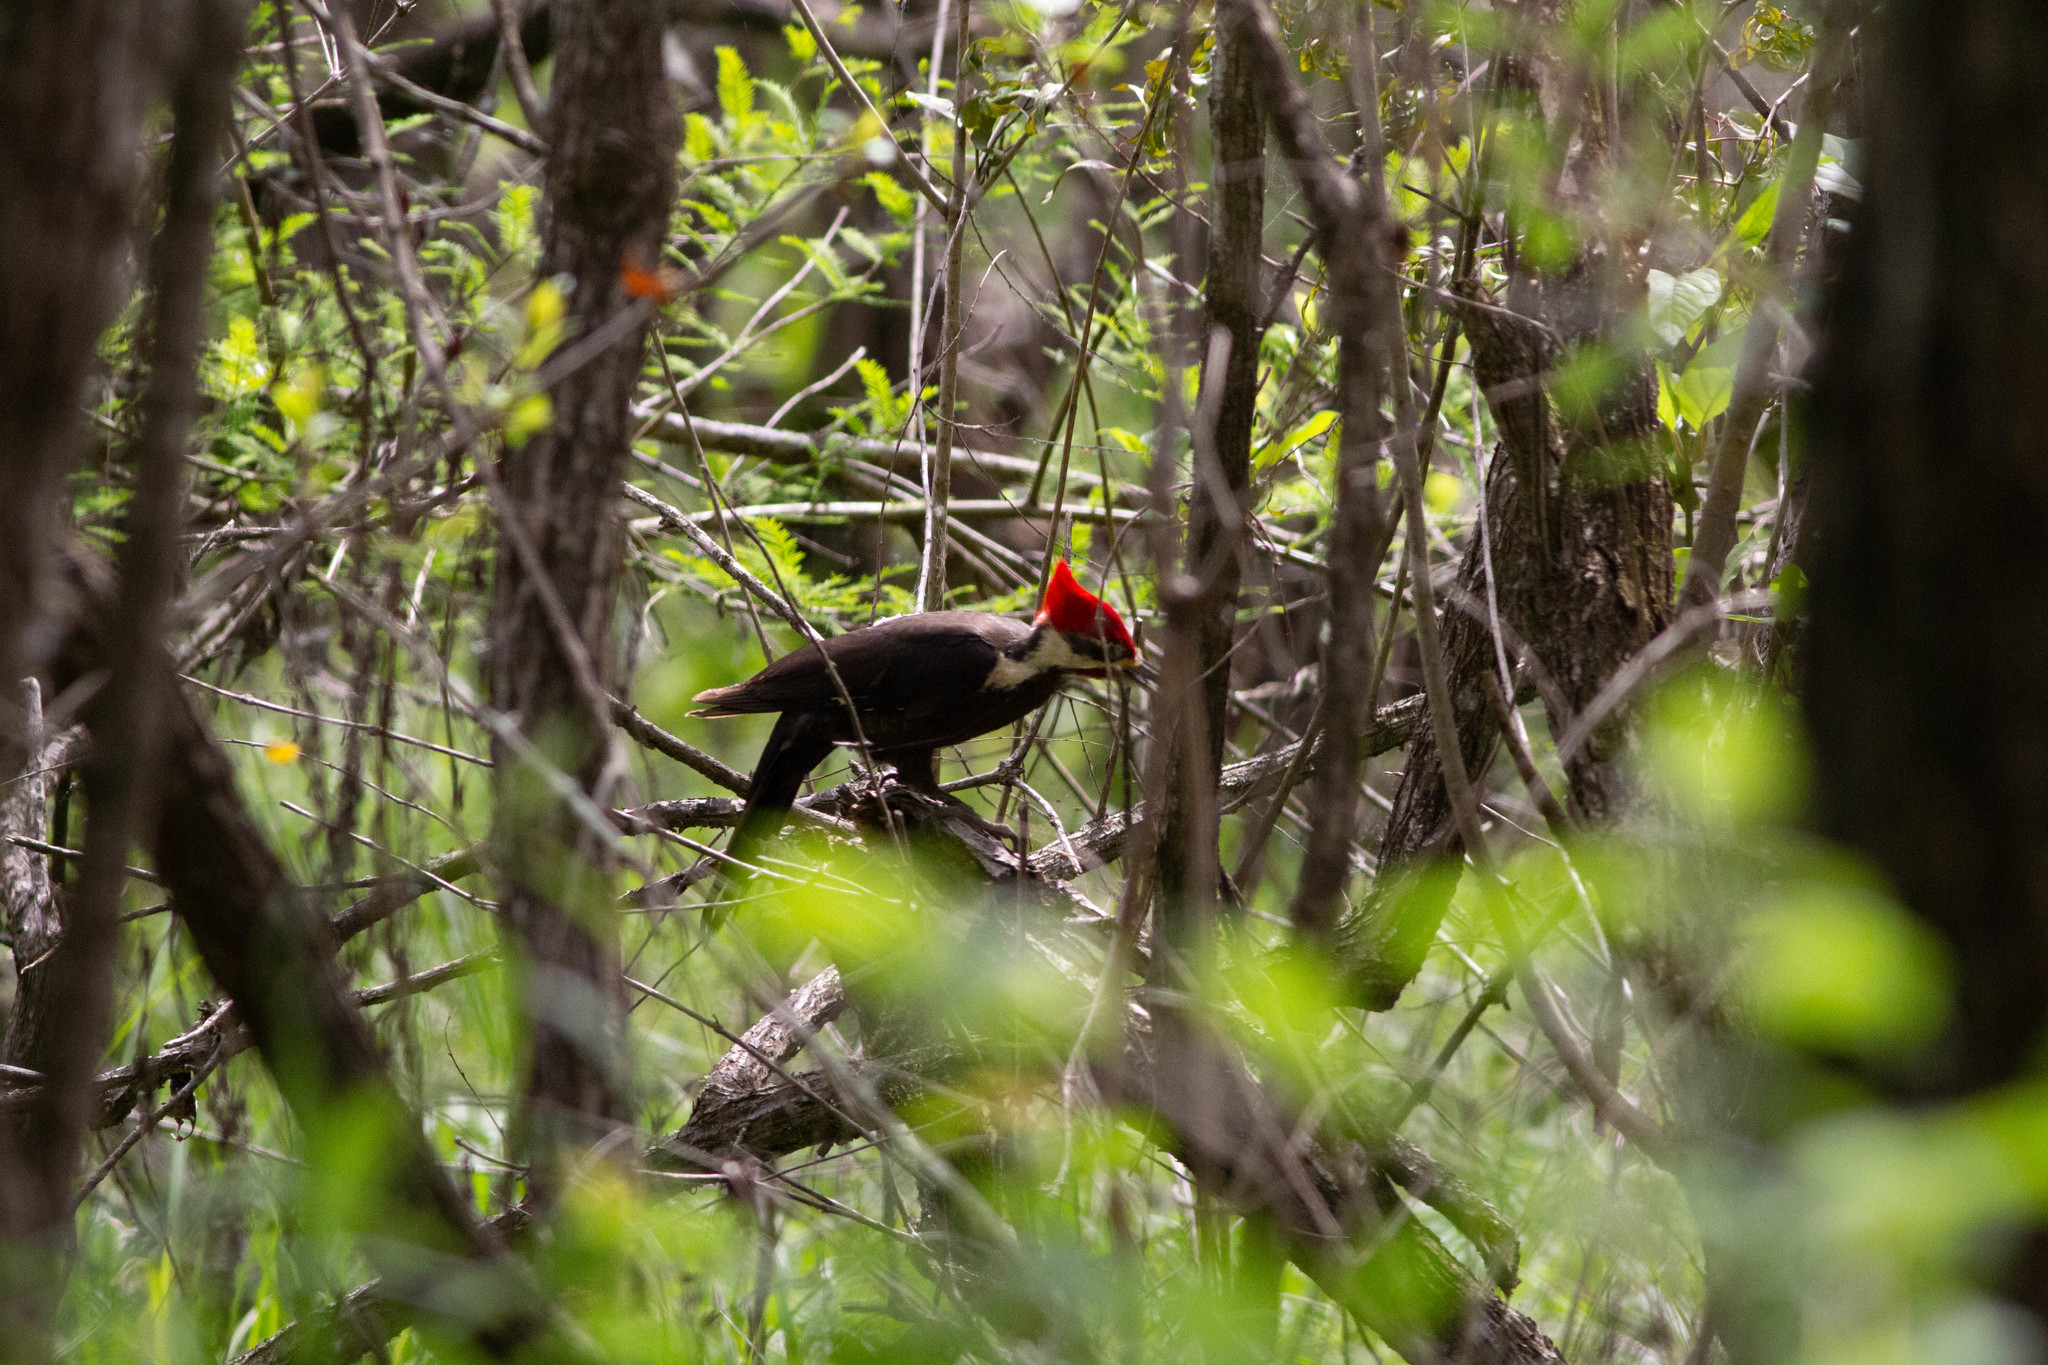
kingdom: Animalia
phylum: Chordata
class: Aves
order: Piciformes
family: Picidae
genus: Dryocopus
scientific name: Dryocopus pileatus
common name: Pileated woodpecker
